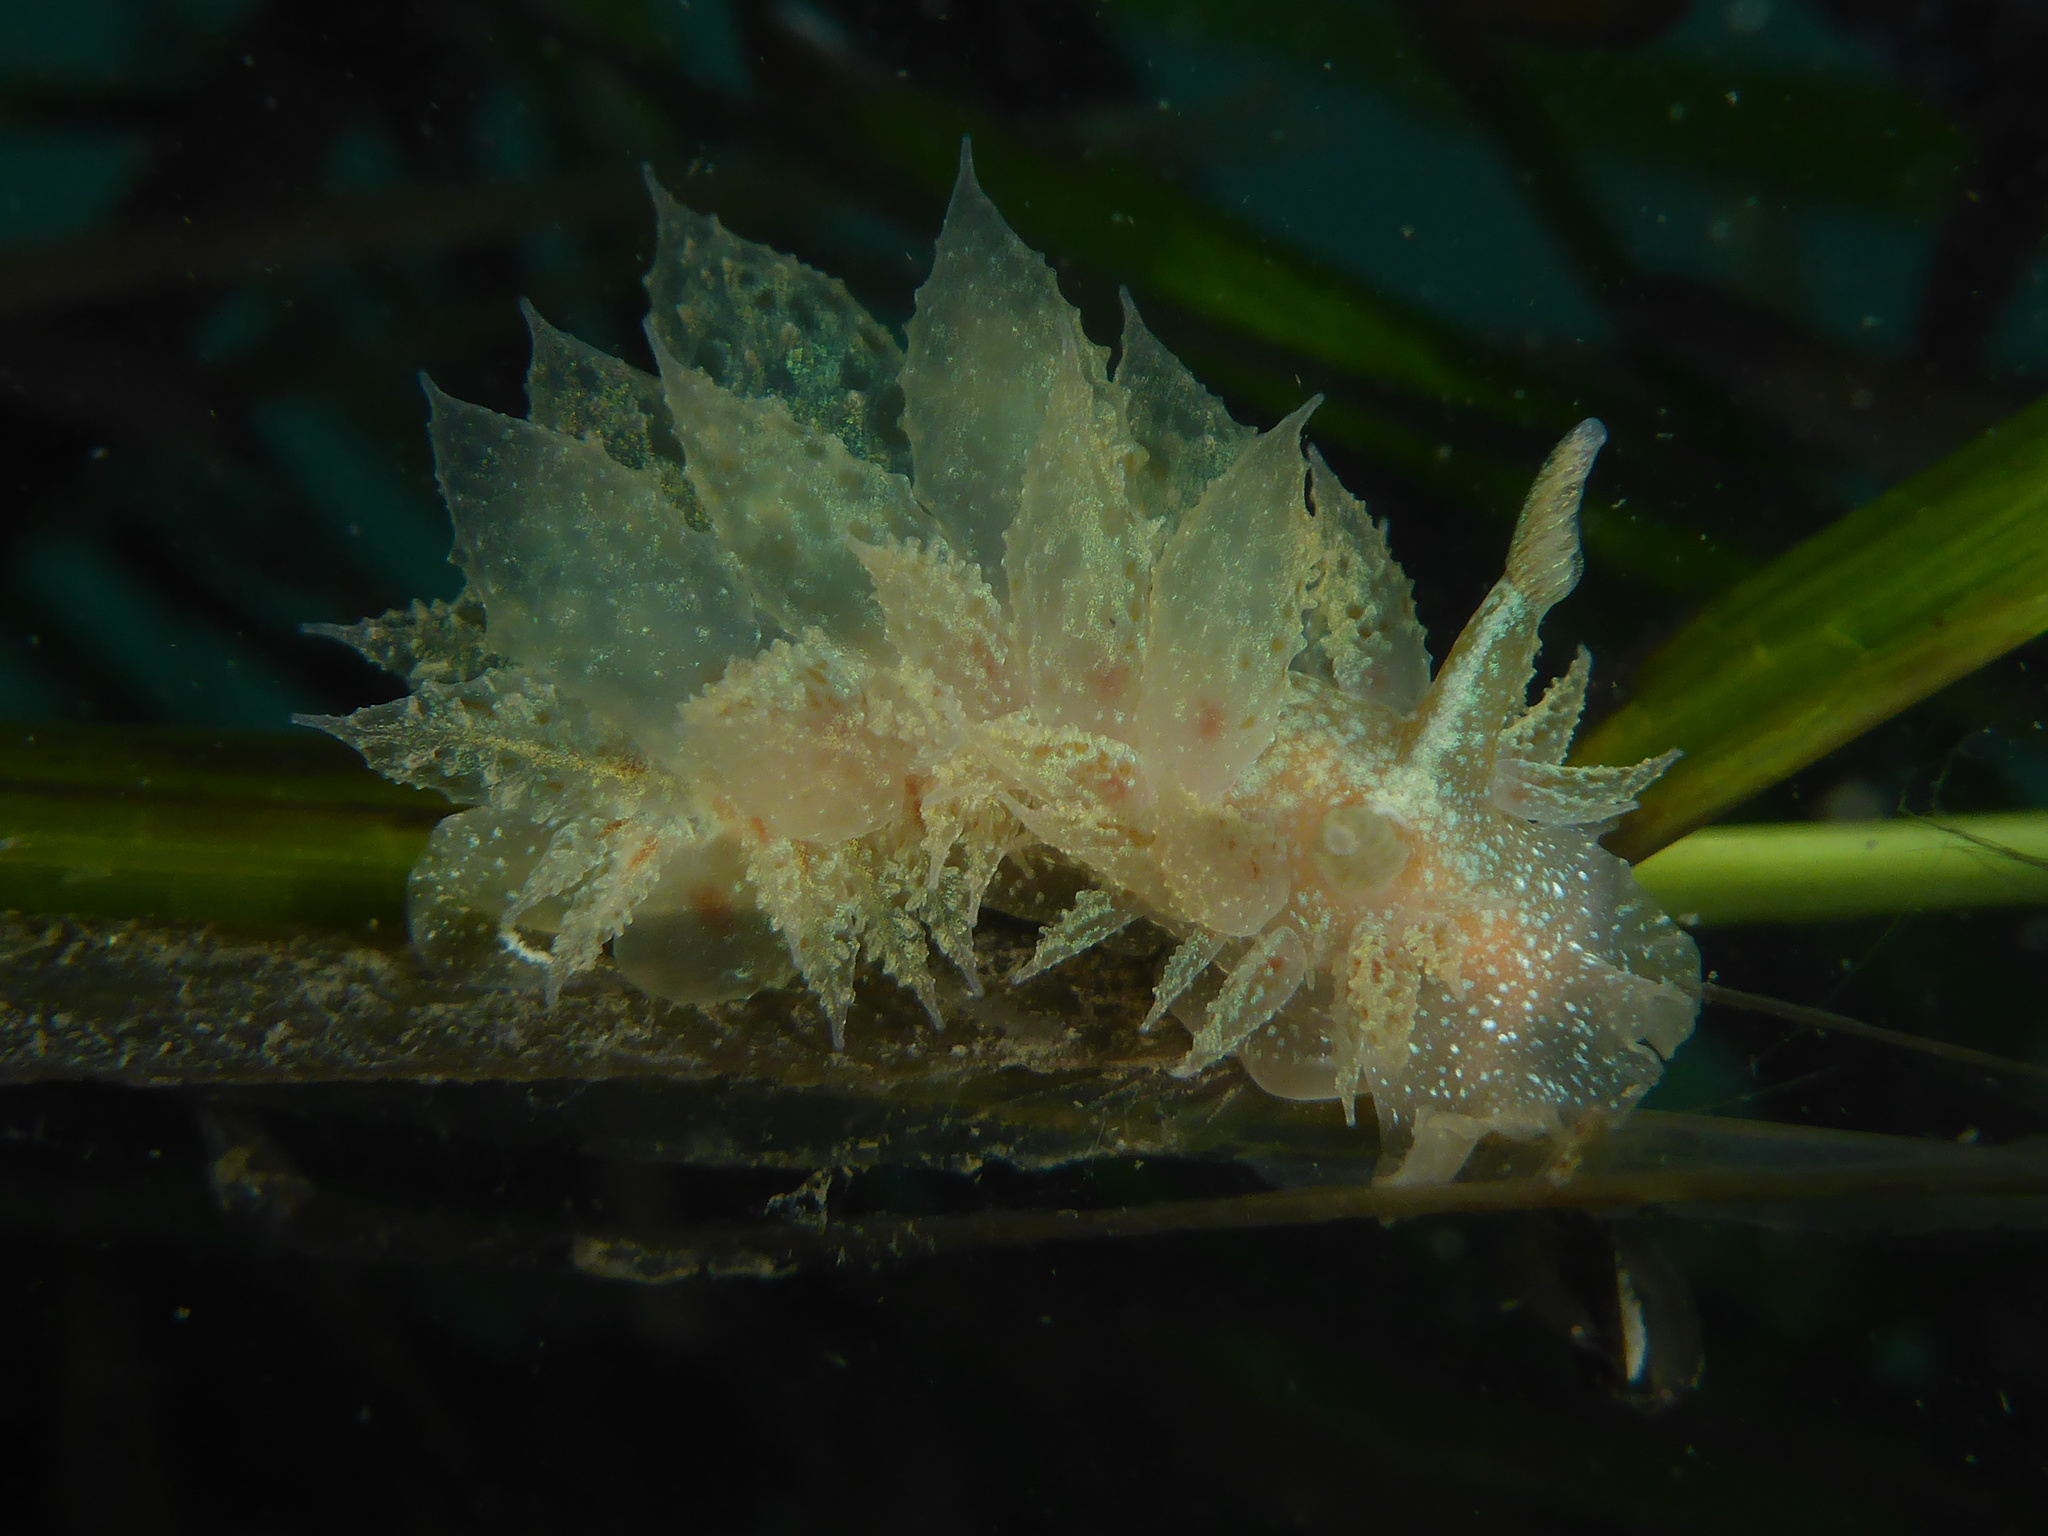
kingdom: Animalia
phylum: Mollusca
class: Gastropoda
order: Nudibranchia
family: Dironidae
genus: Dirona
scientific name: Dirona picta
